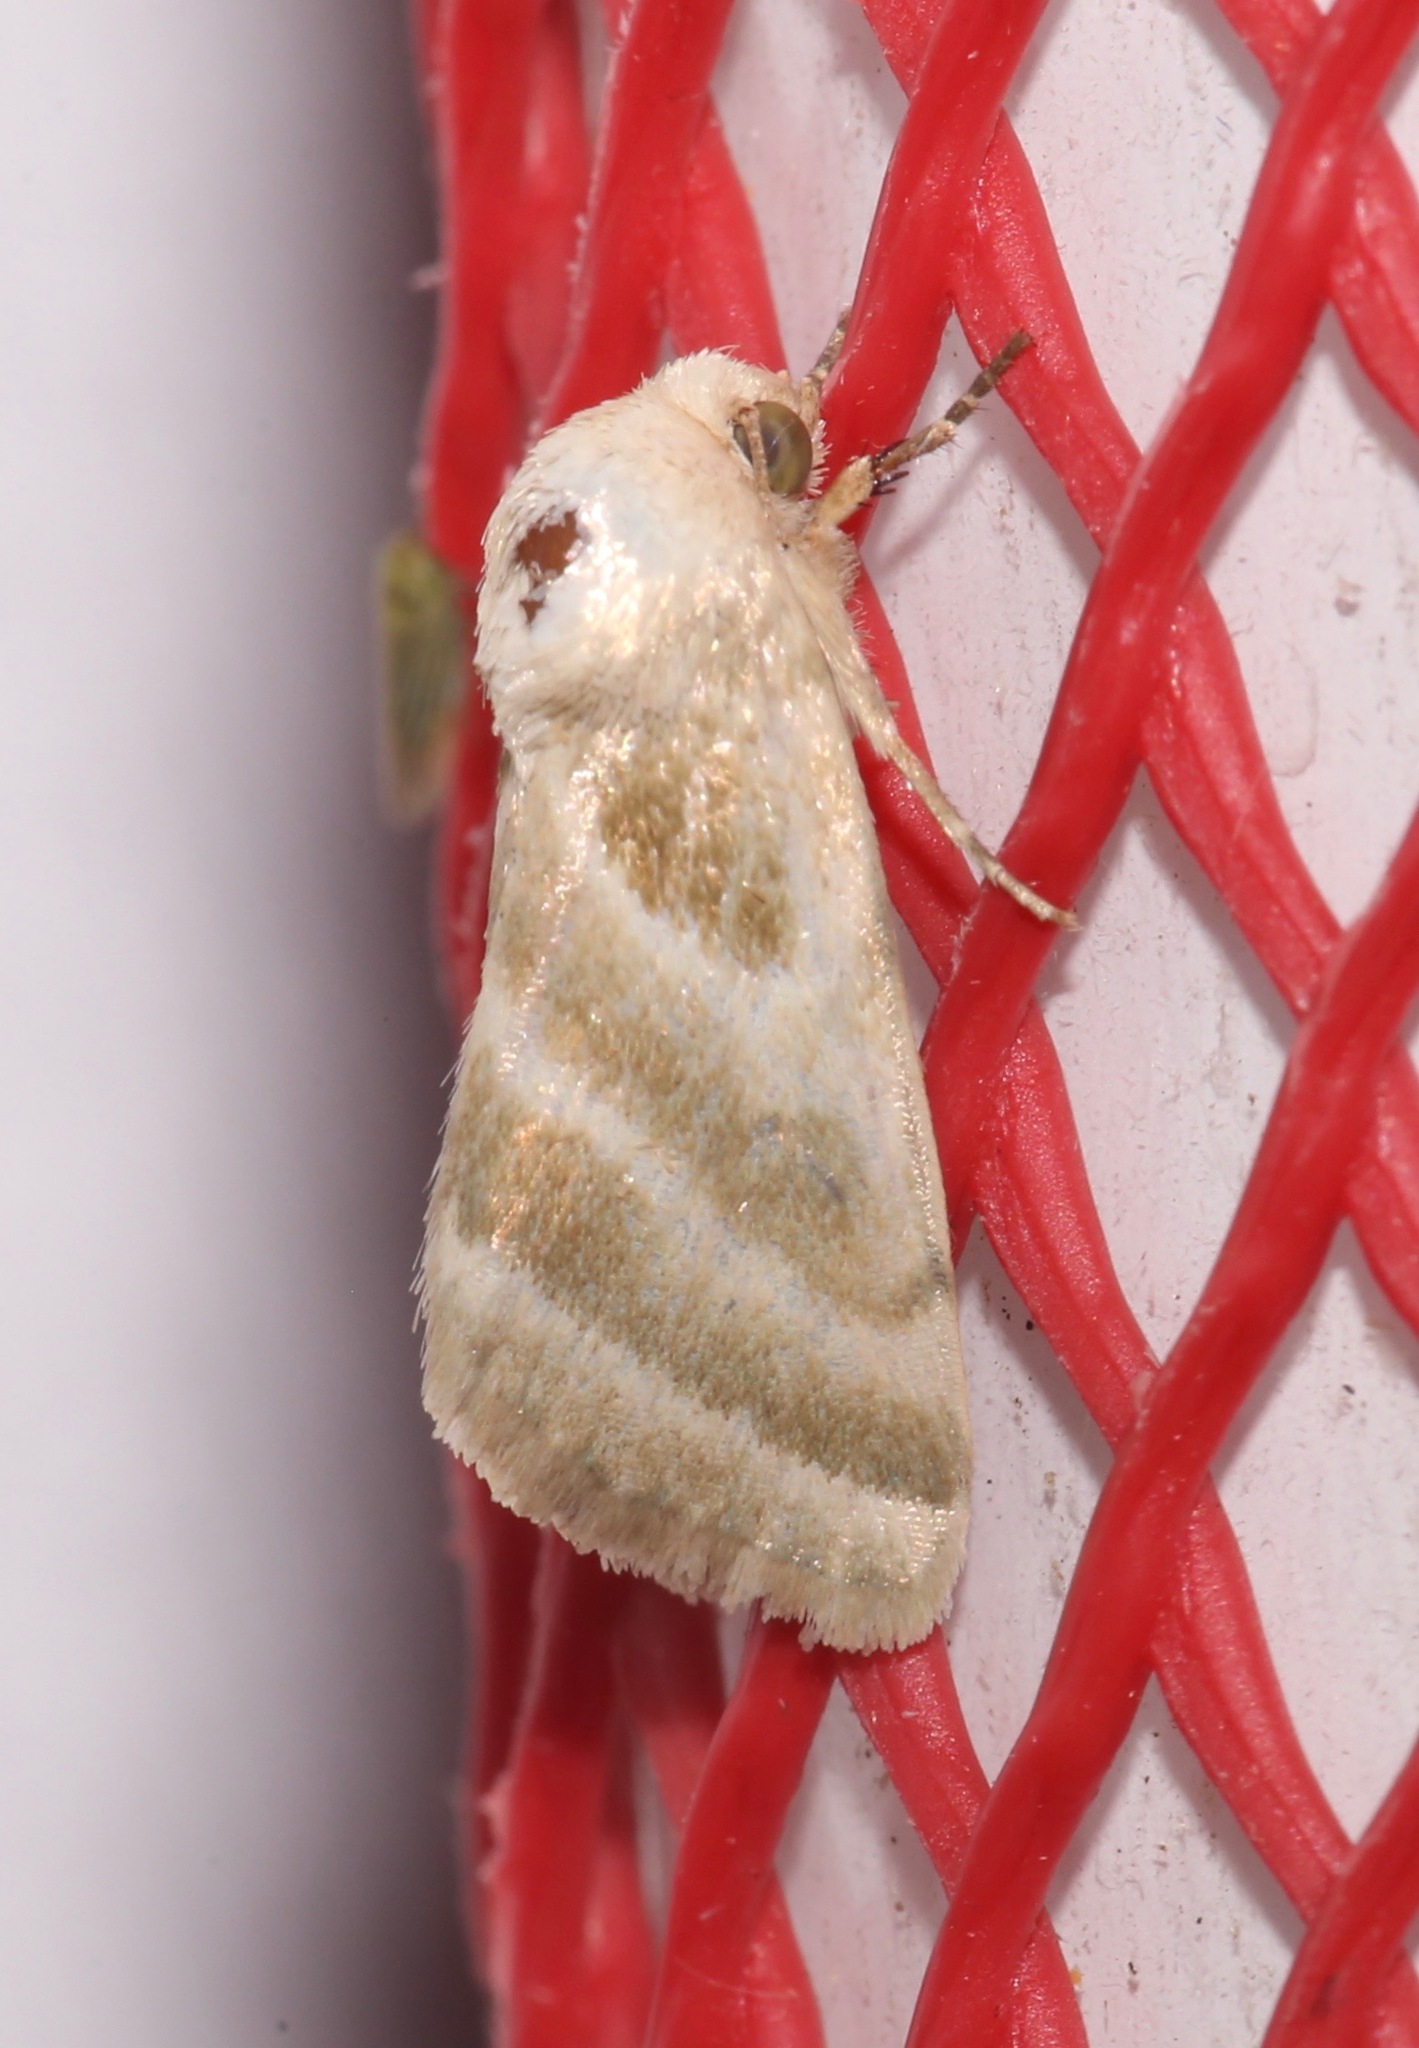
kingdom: Animalia
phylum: Arthropoda
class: Insecta
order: Lepidoptera
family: Noctuidae
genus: Schinia
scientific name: Schinia trifascia
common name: Three-lined flower moth
